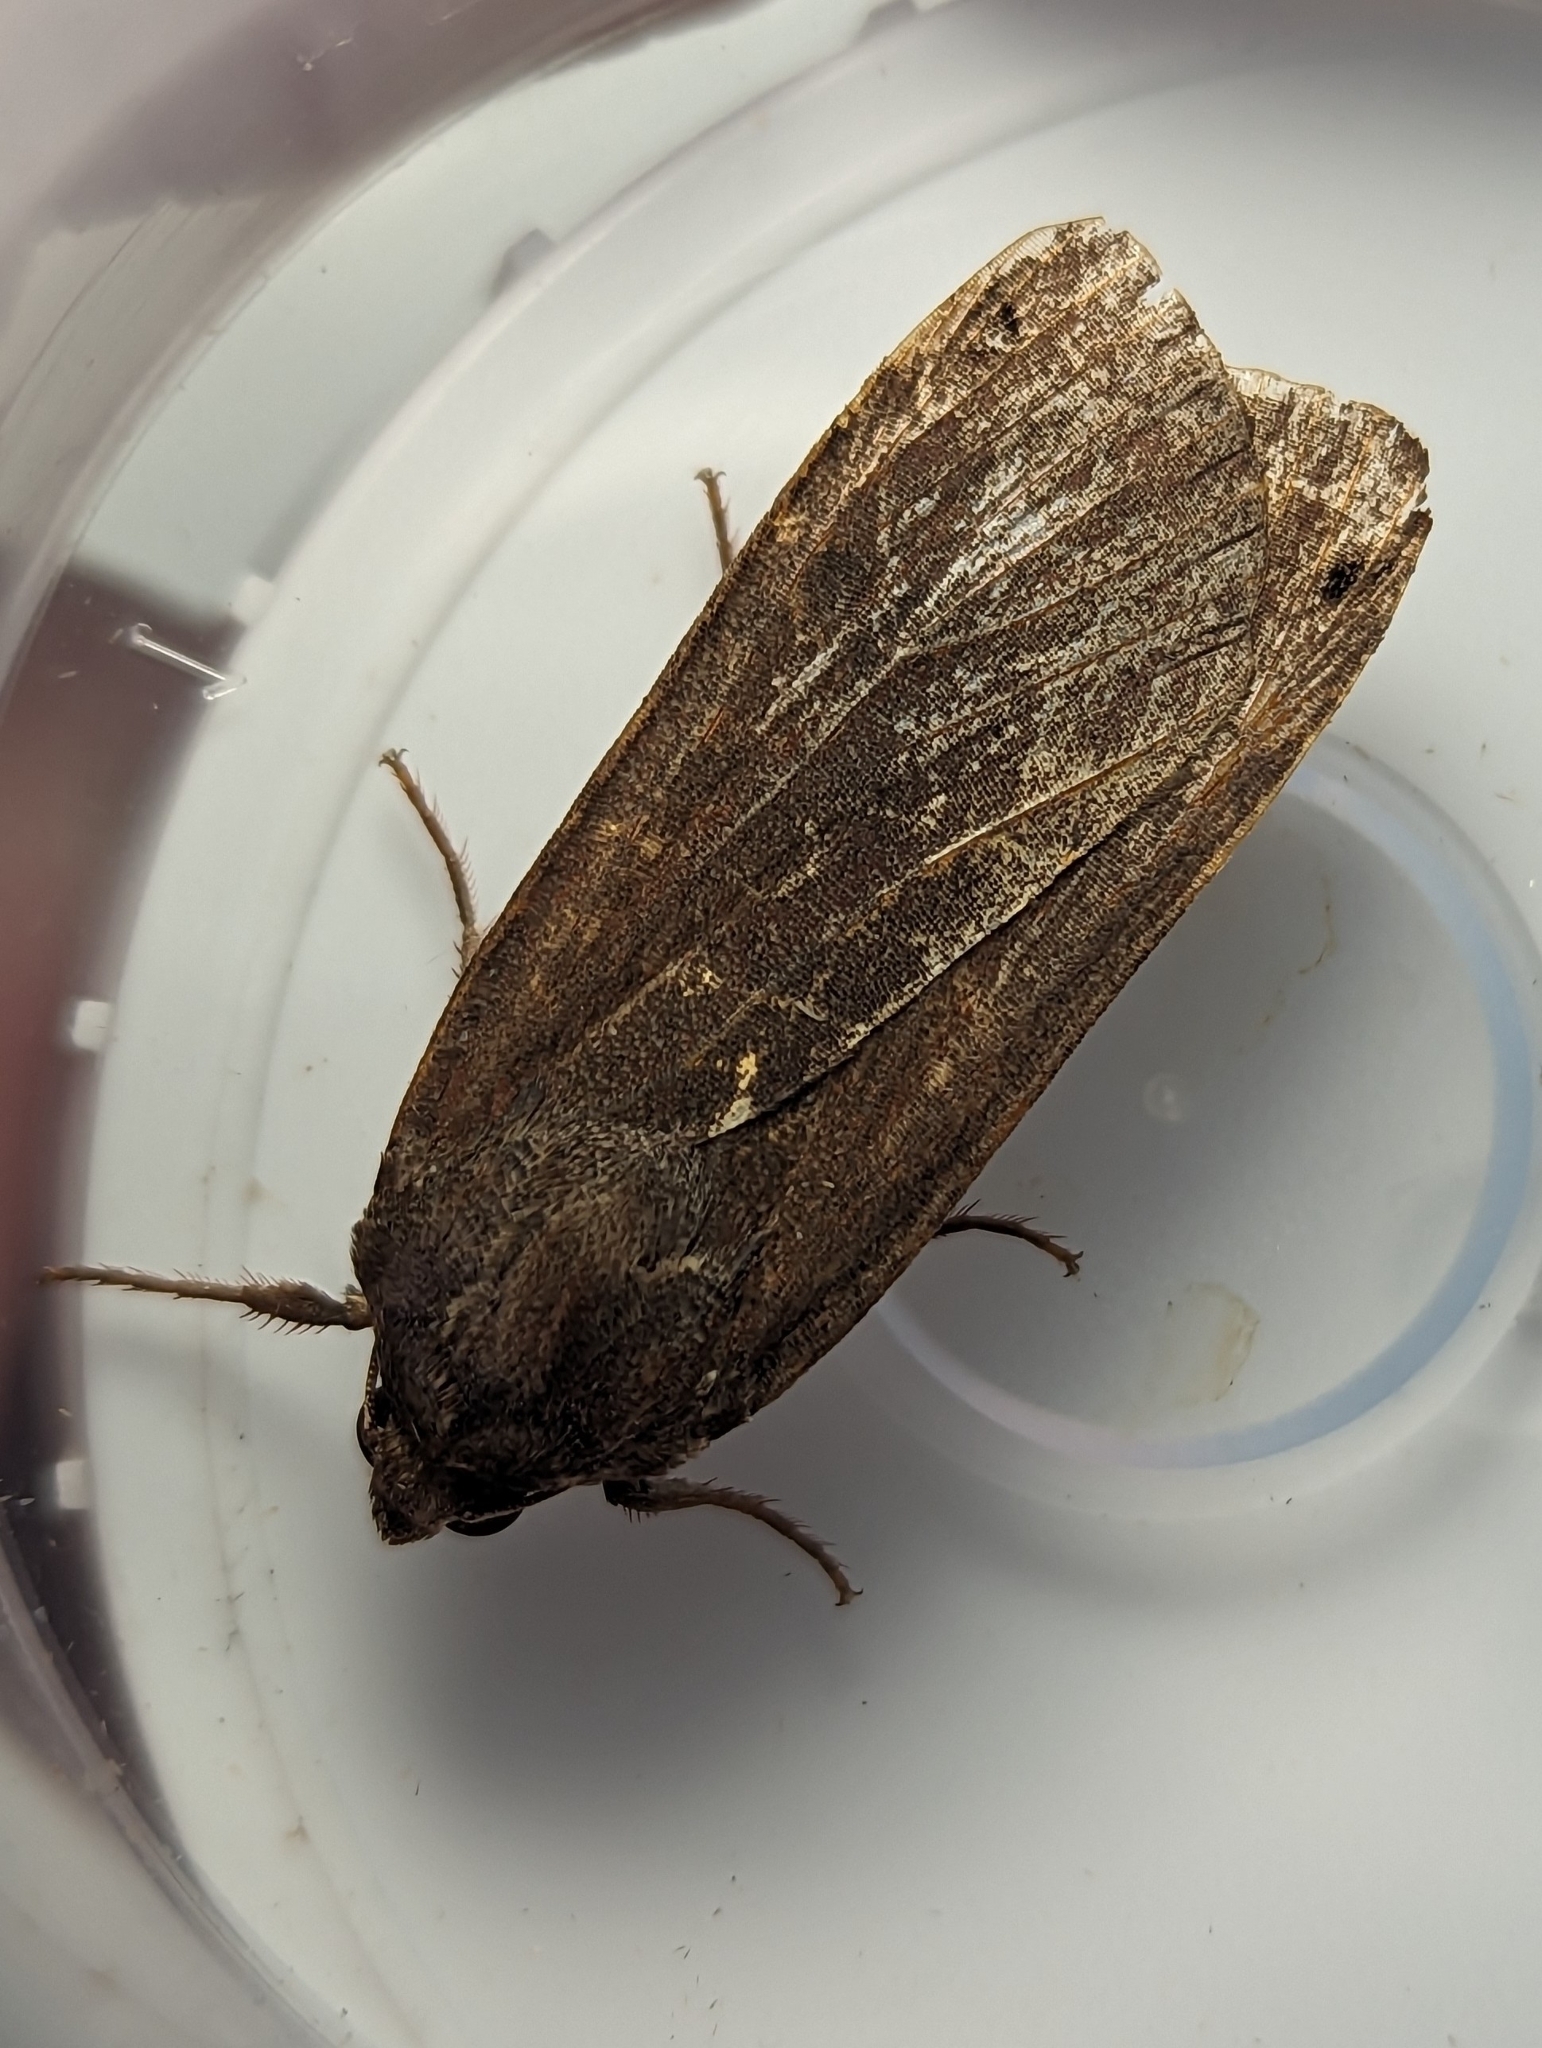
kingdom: Animalia
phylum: Arthropoda
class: Insecta
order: Lepidoptera
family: Noctuidae
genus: Noctua
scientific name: Noctua pronuba
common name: Large yellow underwing
